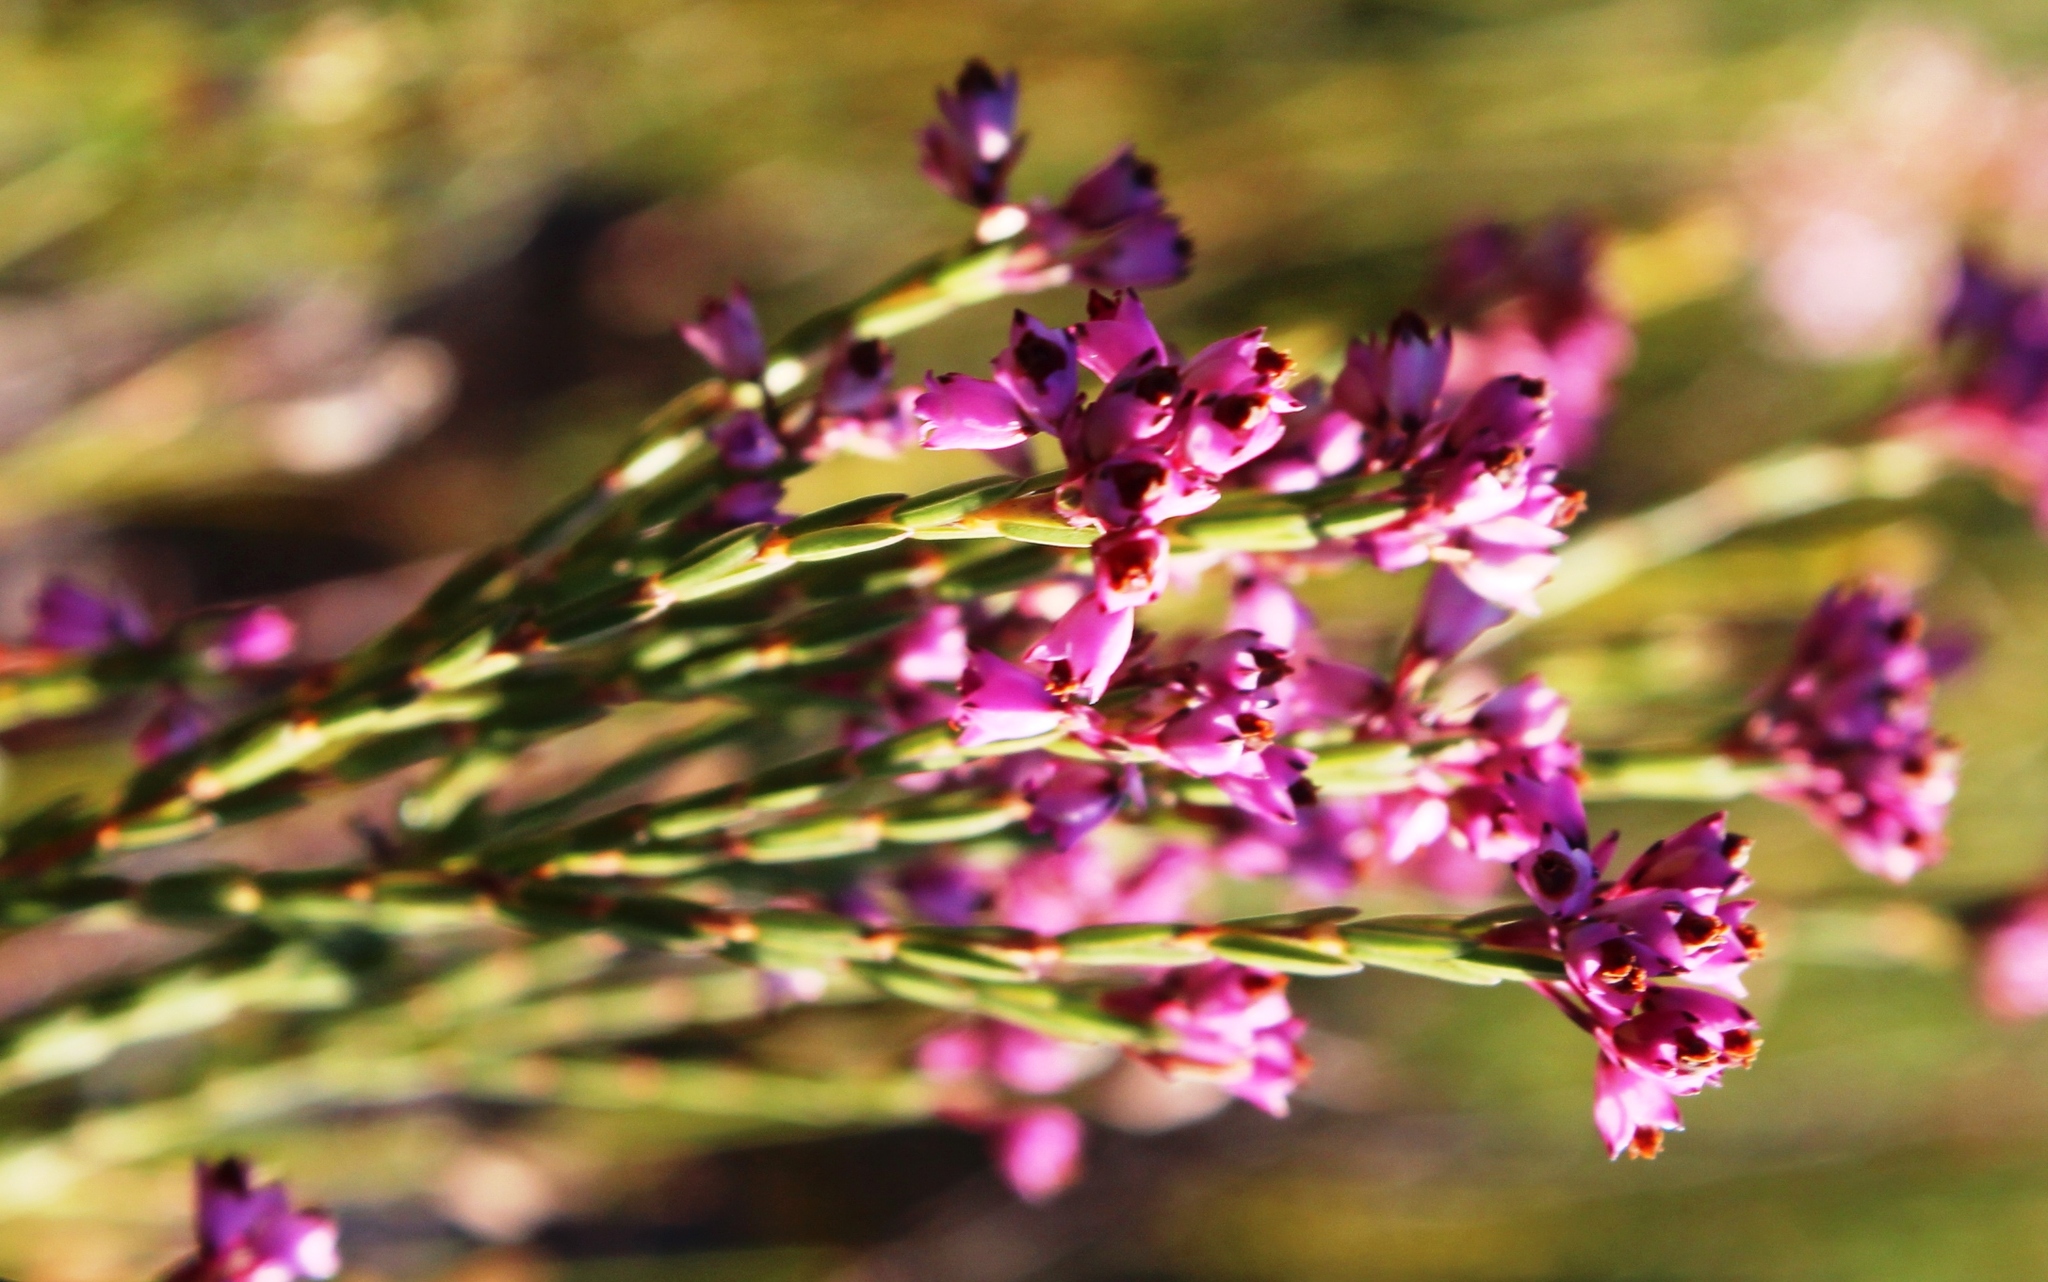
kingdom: Plantae
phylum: Tracheophyta
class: Magnoliopsida
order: Ericales
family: Ericaceae
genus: Erica
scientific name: Erica corifolia
